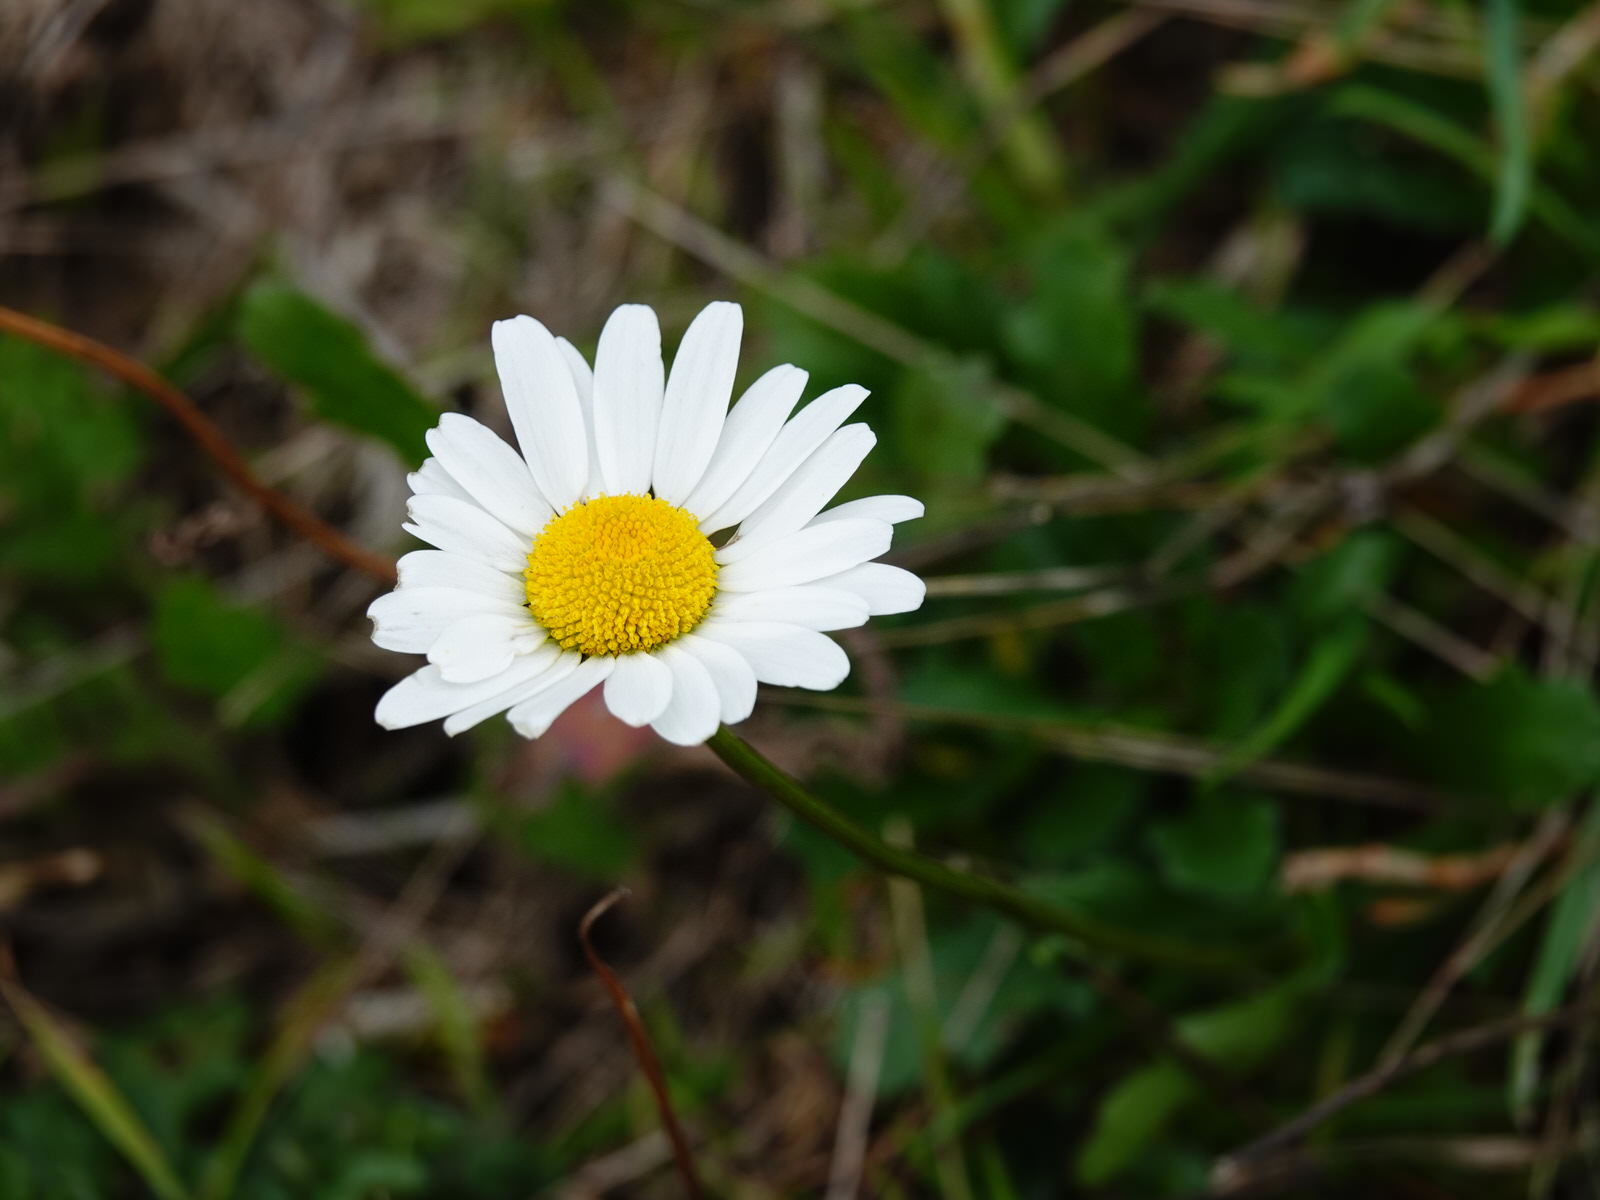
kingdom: Plantae
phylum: Tracheophyta
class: Magnoliopsida
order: Asterales
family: Asteraceae
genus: Leucanthemum
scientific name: Leucanthemum vulgare
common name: Oxeye daisy
